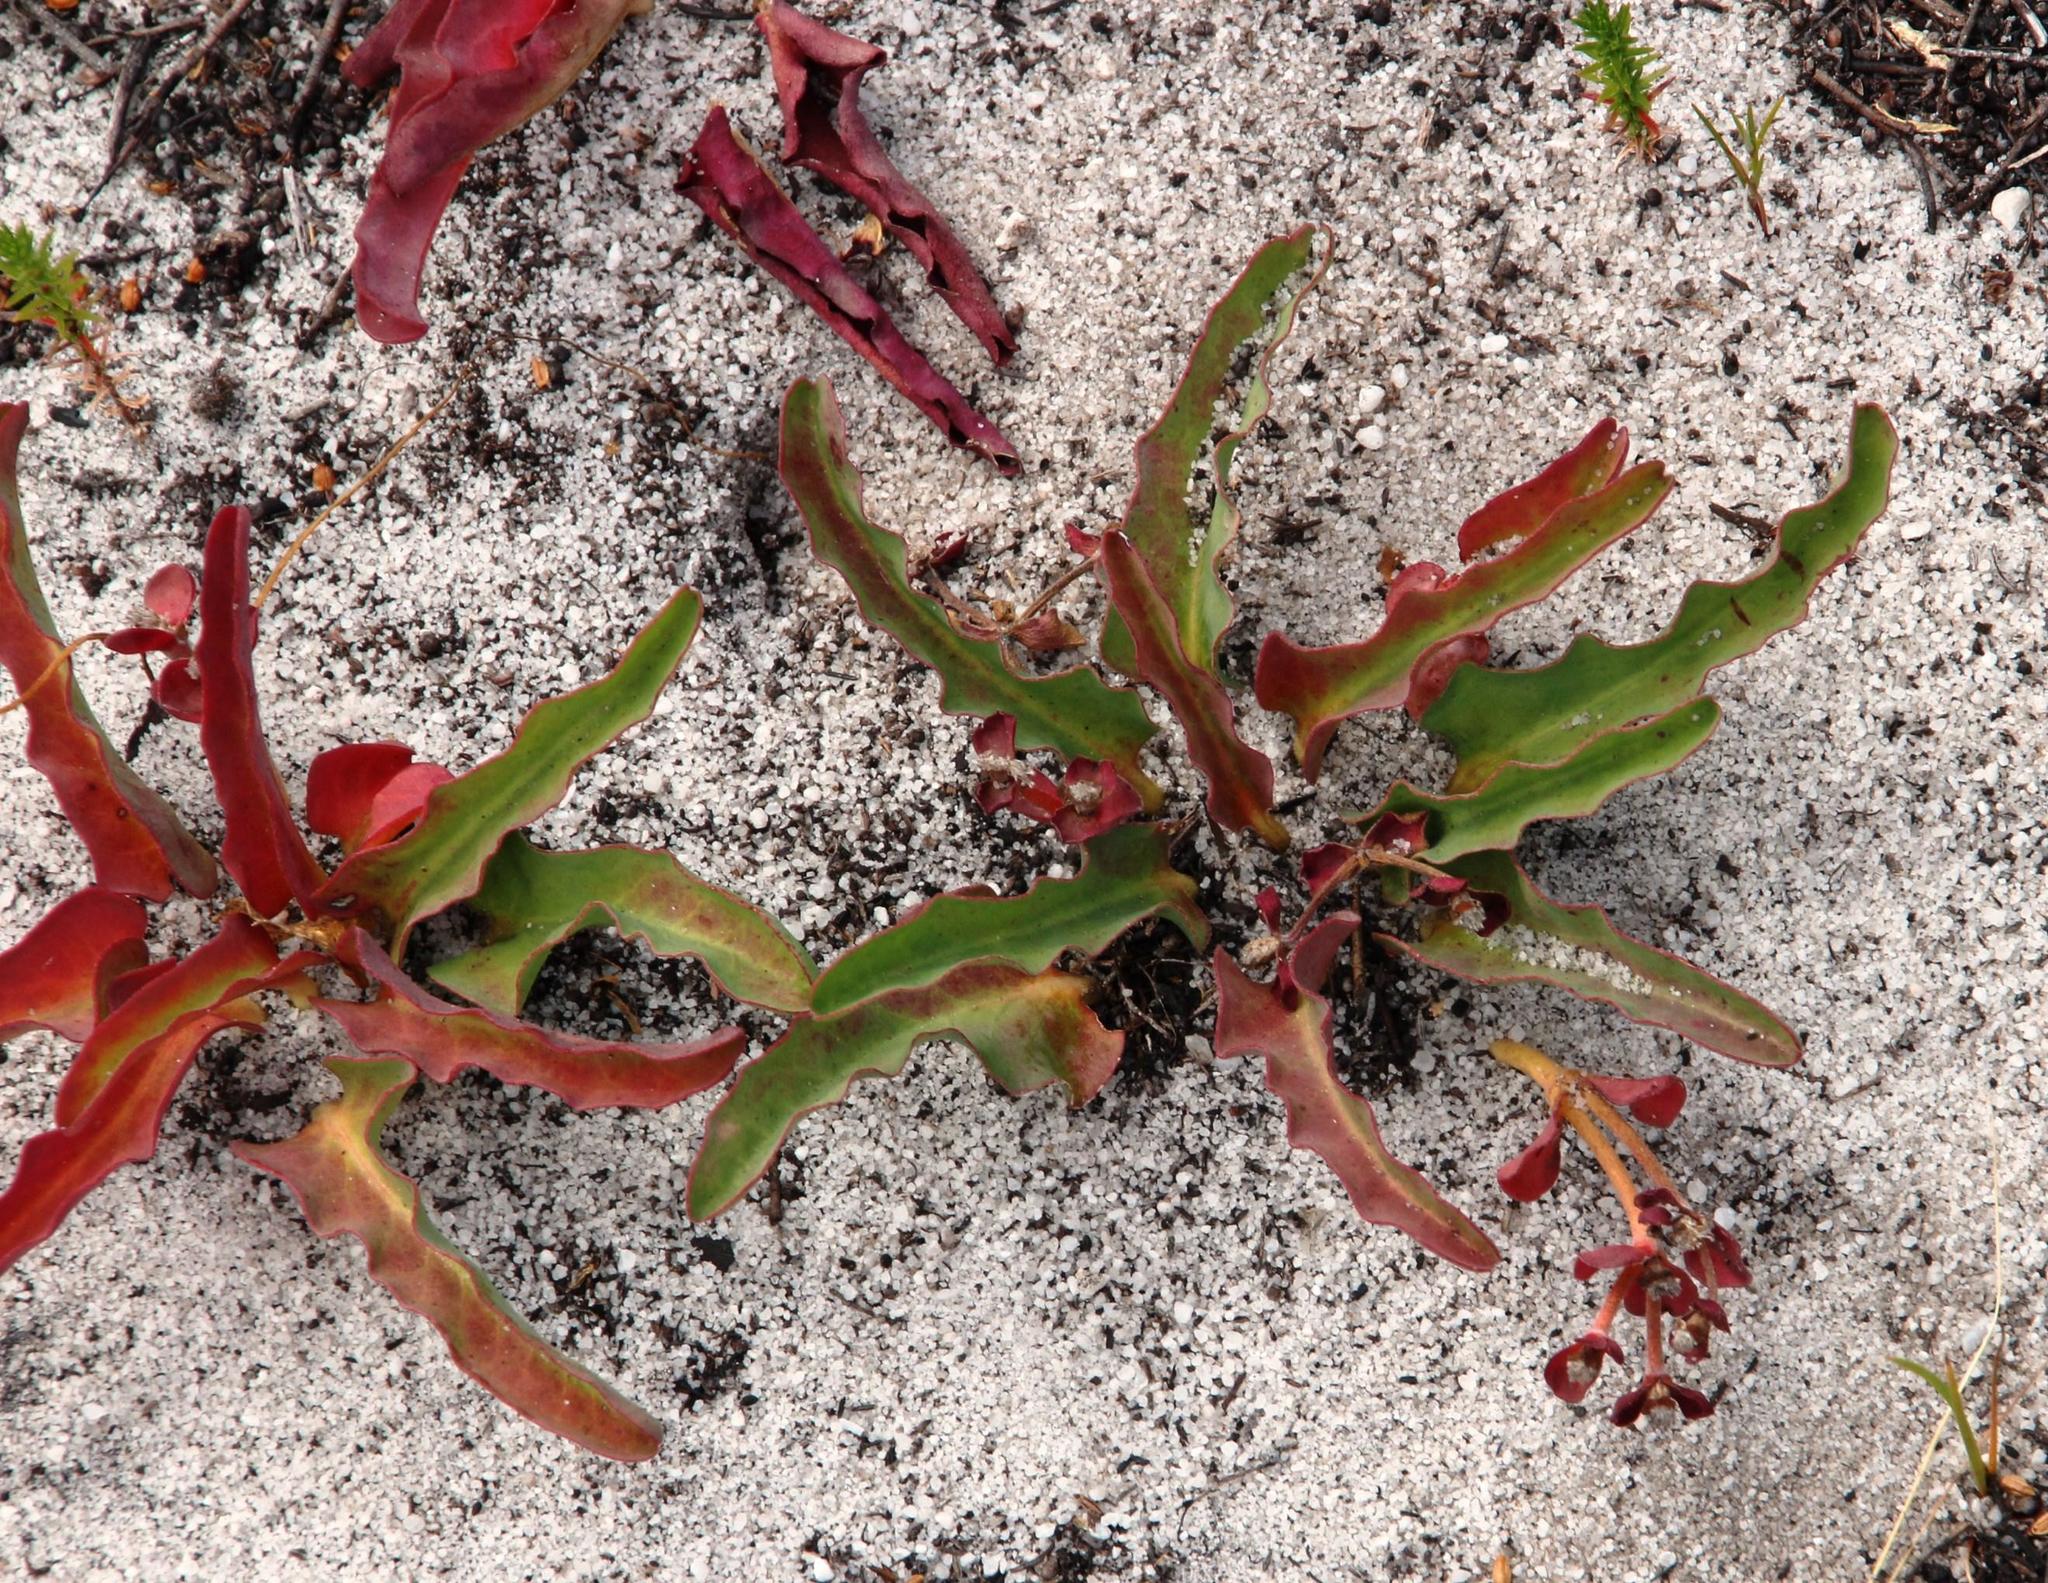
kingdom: Plantae
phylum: Tracheophyta
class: Magnoliopsida
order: Malpighiales
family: Euphorbiaceae
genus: Euphorbia
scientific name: Euphorbia tuberosa
